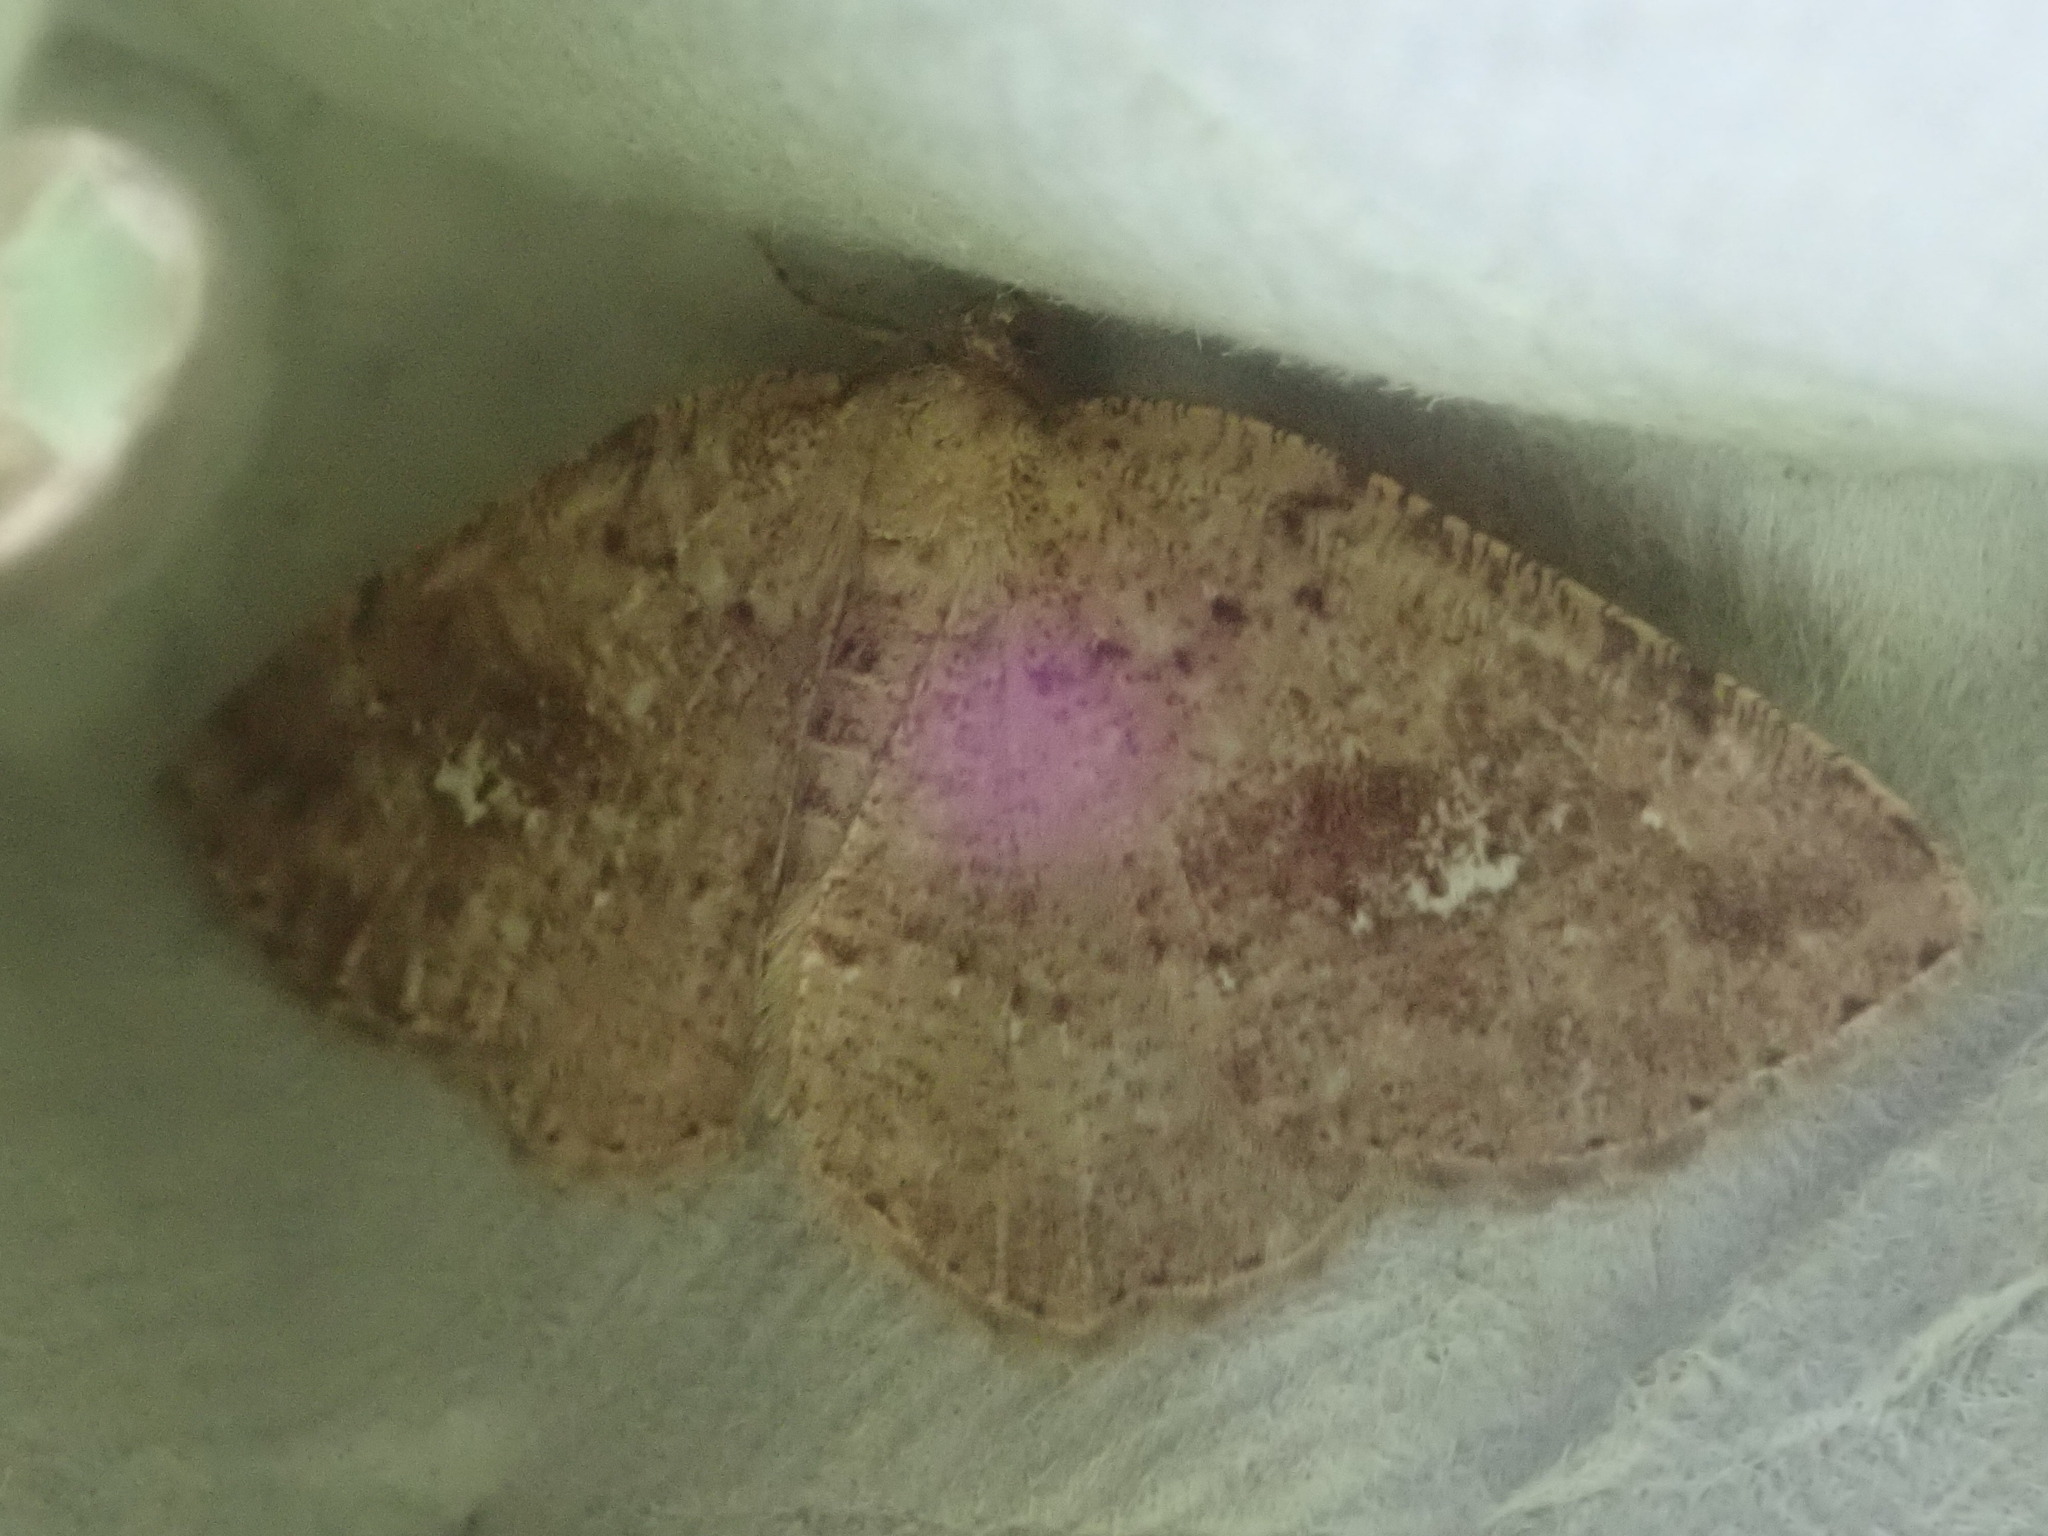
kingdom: Animalia
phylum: Arthropoda
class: Insecta
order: Lepidoptera
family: Geometridae
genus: Homochlodes
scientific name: Homochlodes fritillaria
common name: Pale homochlodes
